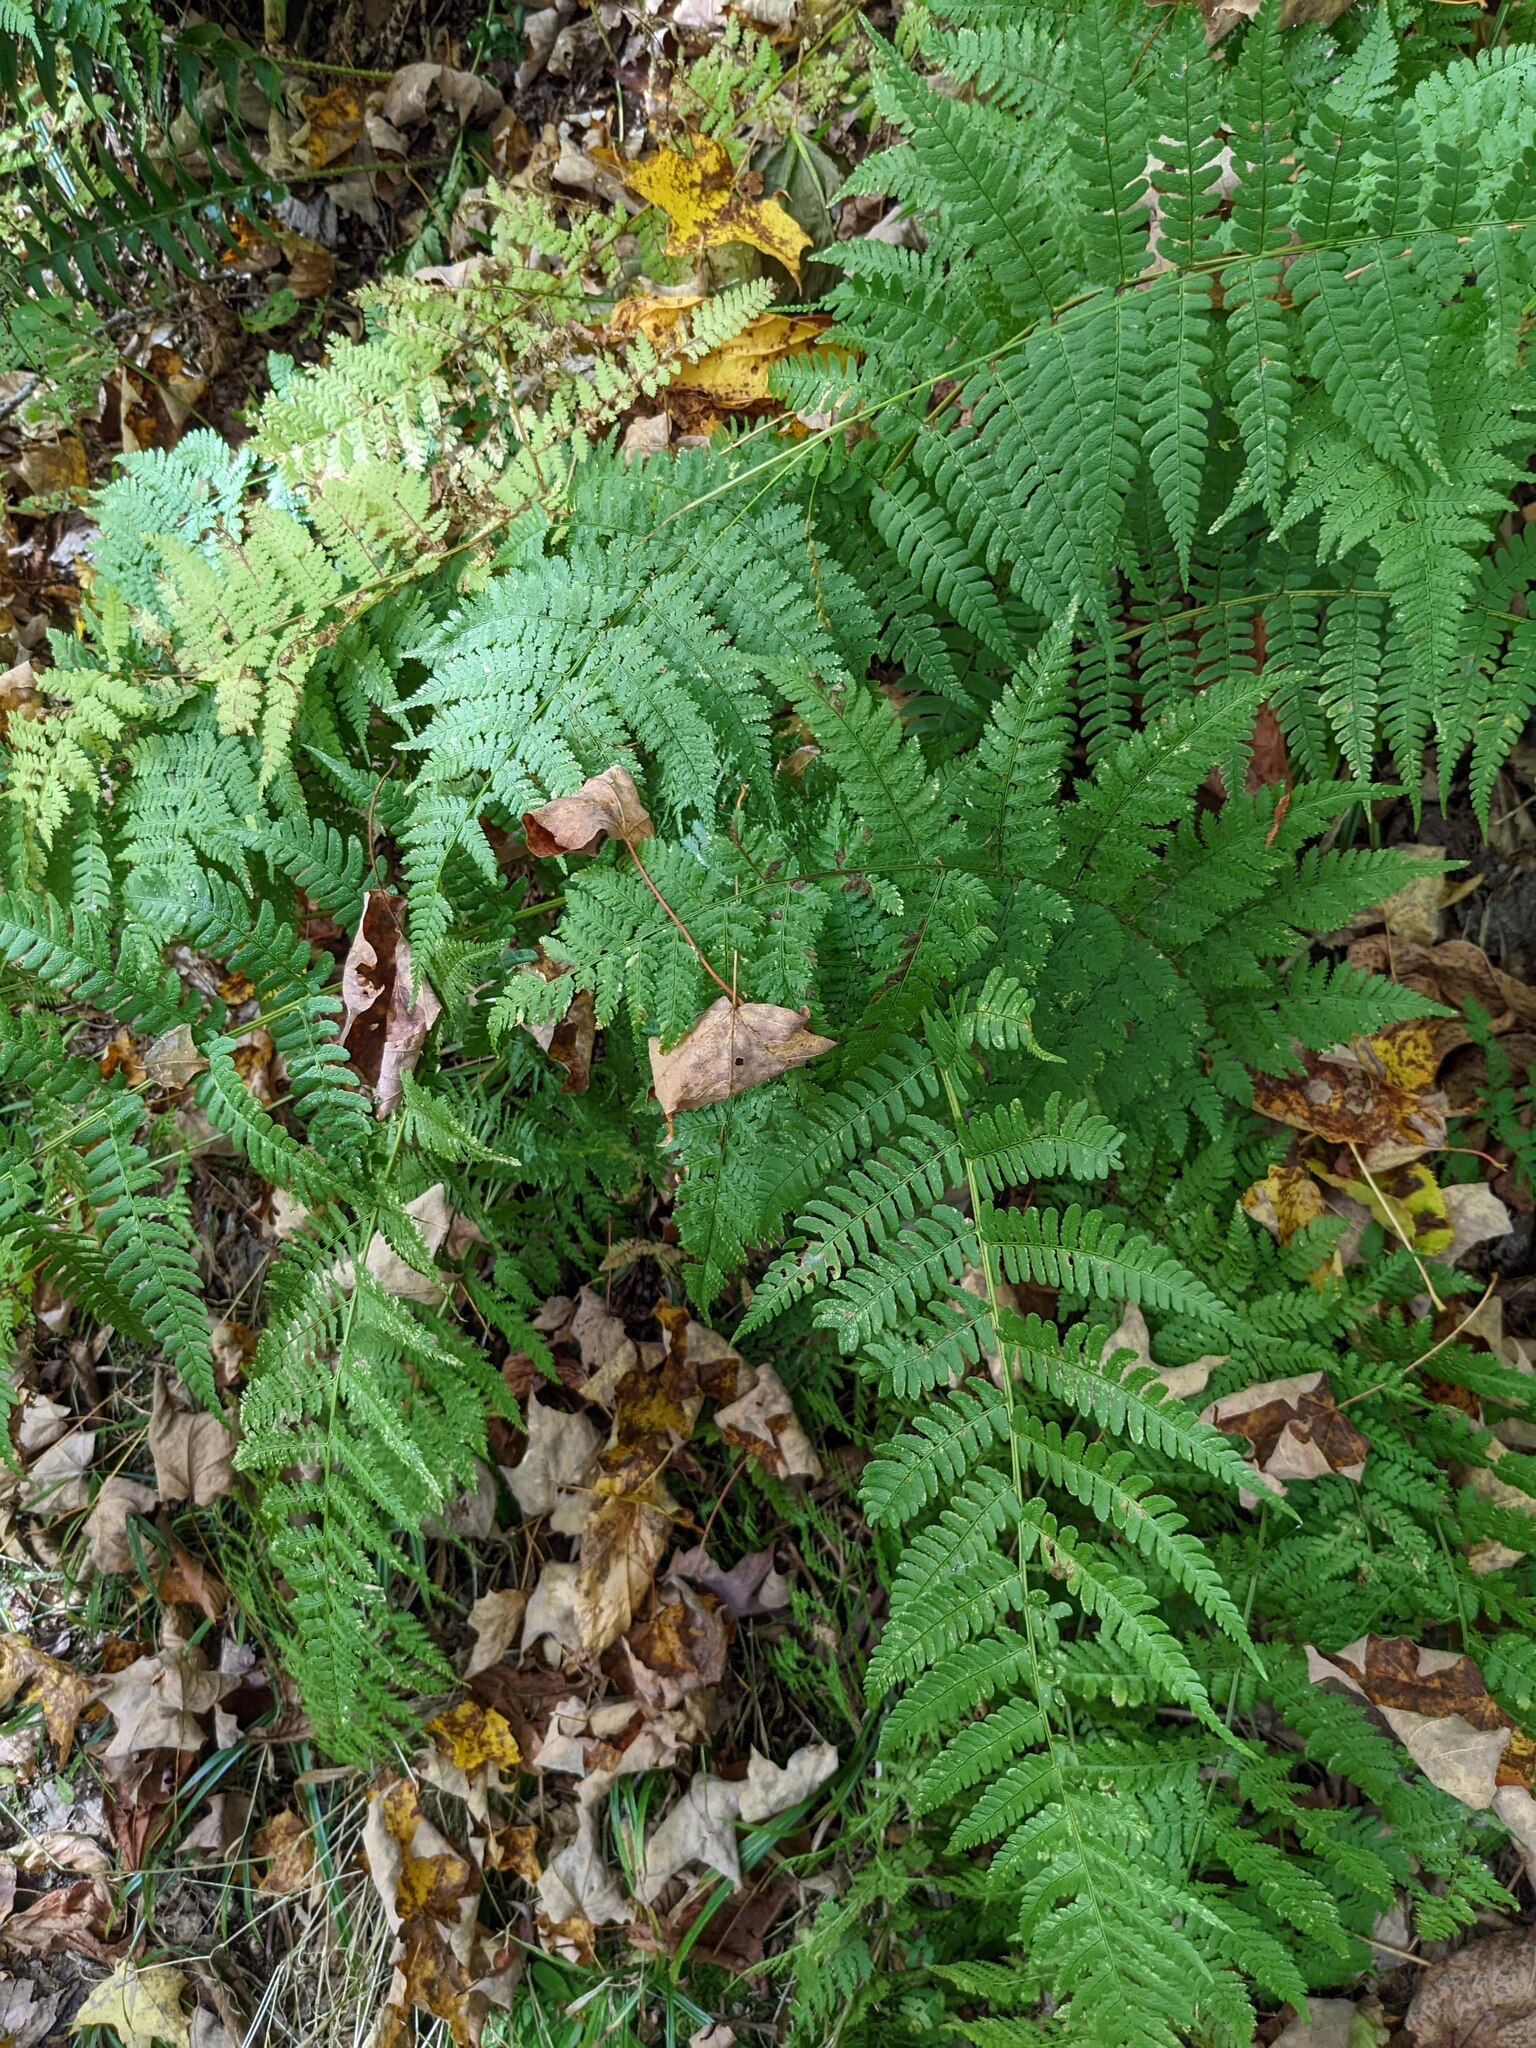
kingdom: Plantae
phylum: Tracheophyta
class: Polypodiopsida
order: Polypodiales
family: Dryopteridaceae
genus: Dryopteris
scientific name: Dryopteris intermedia
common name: Evergreen wood fern
